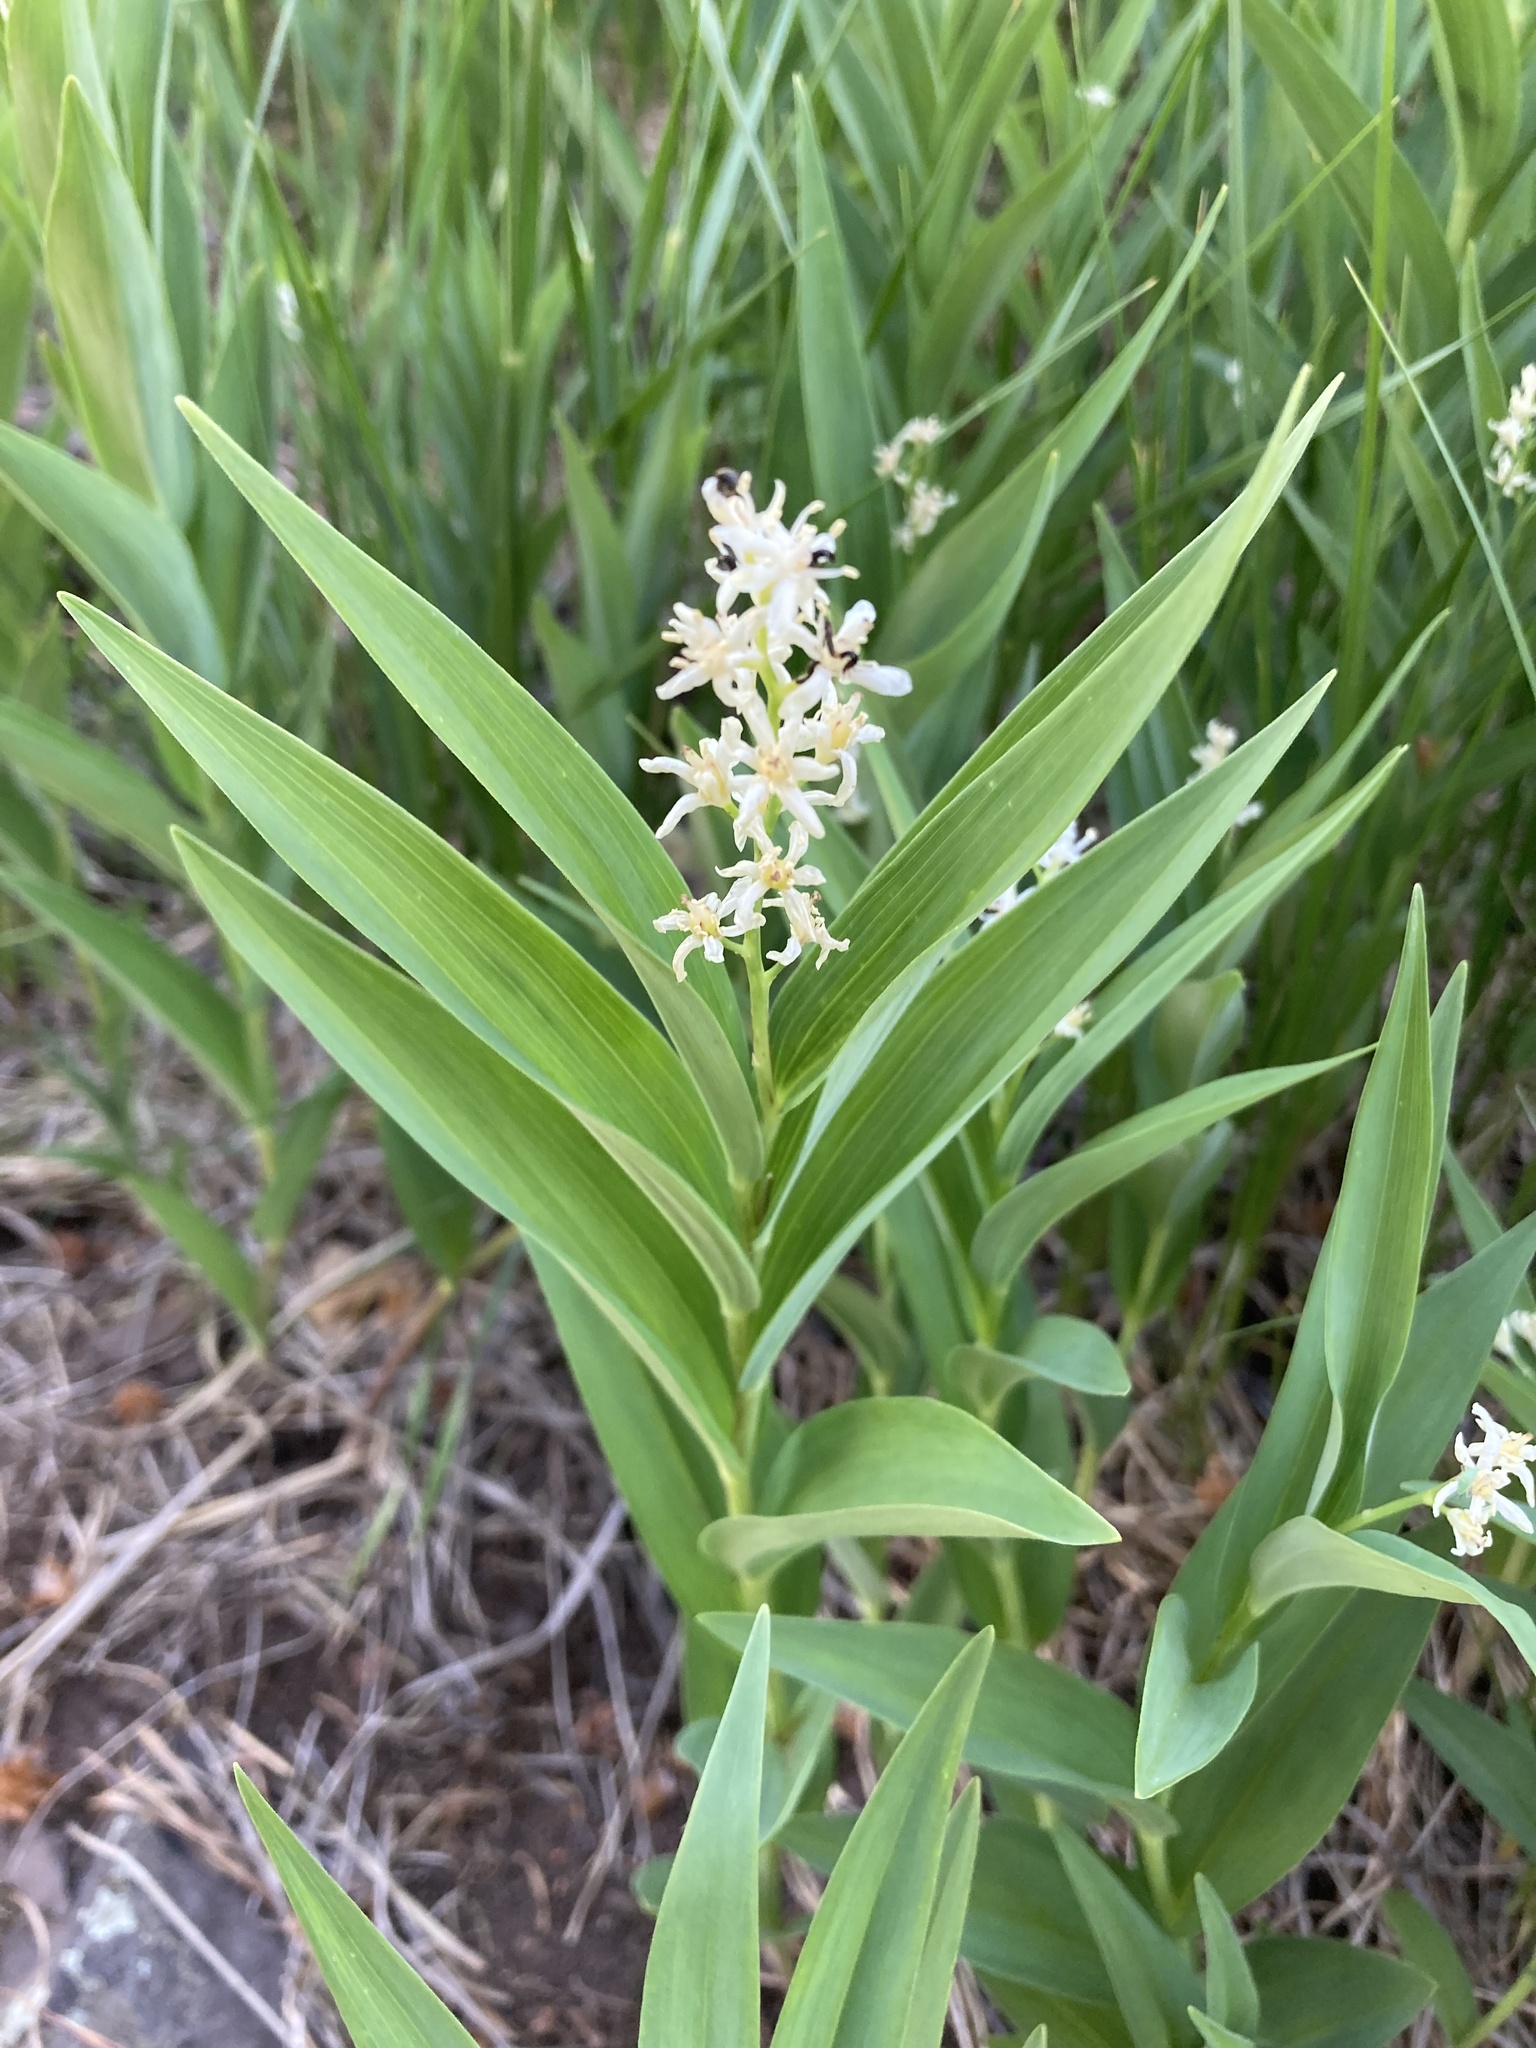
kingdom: Plantae
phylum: Tracheophyta
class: Liliopsida
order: Asparagales
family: Asparagaceae
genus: Maianthemum
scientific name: Maianthemum stellatum
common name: Little false solomon's seal
